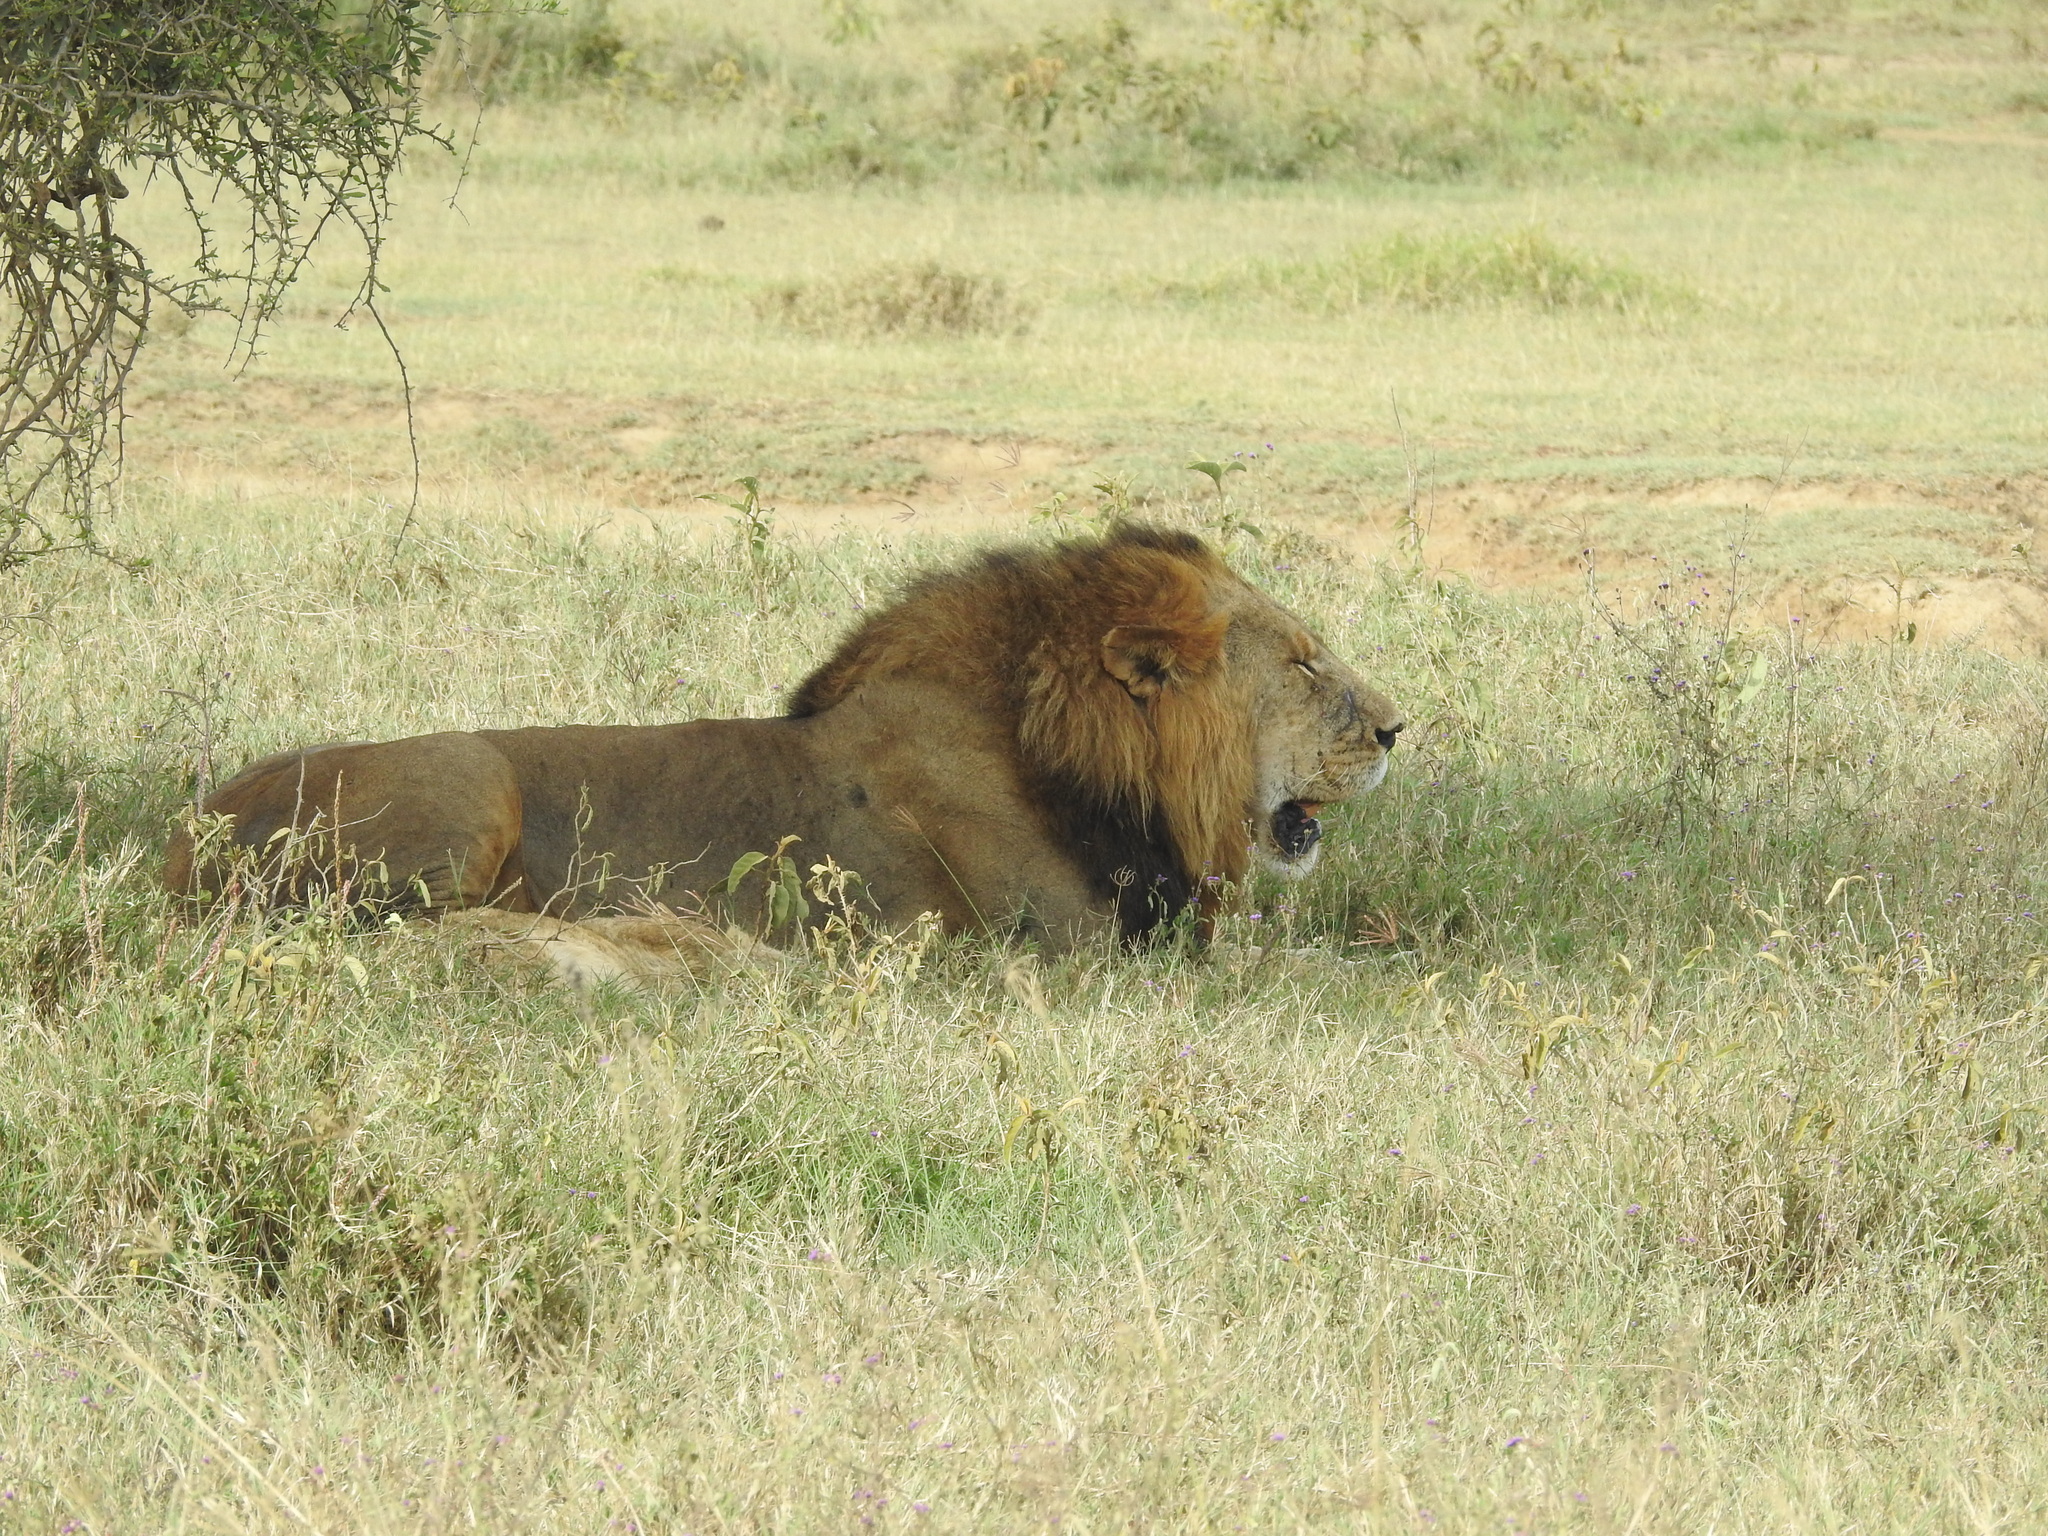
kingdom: Animalia
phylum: Chordata
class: Mammalia
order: Carnivora
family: Felidae
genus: Panthera
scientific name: Panthera leo
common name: Lion
